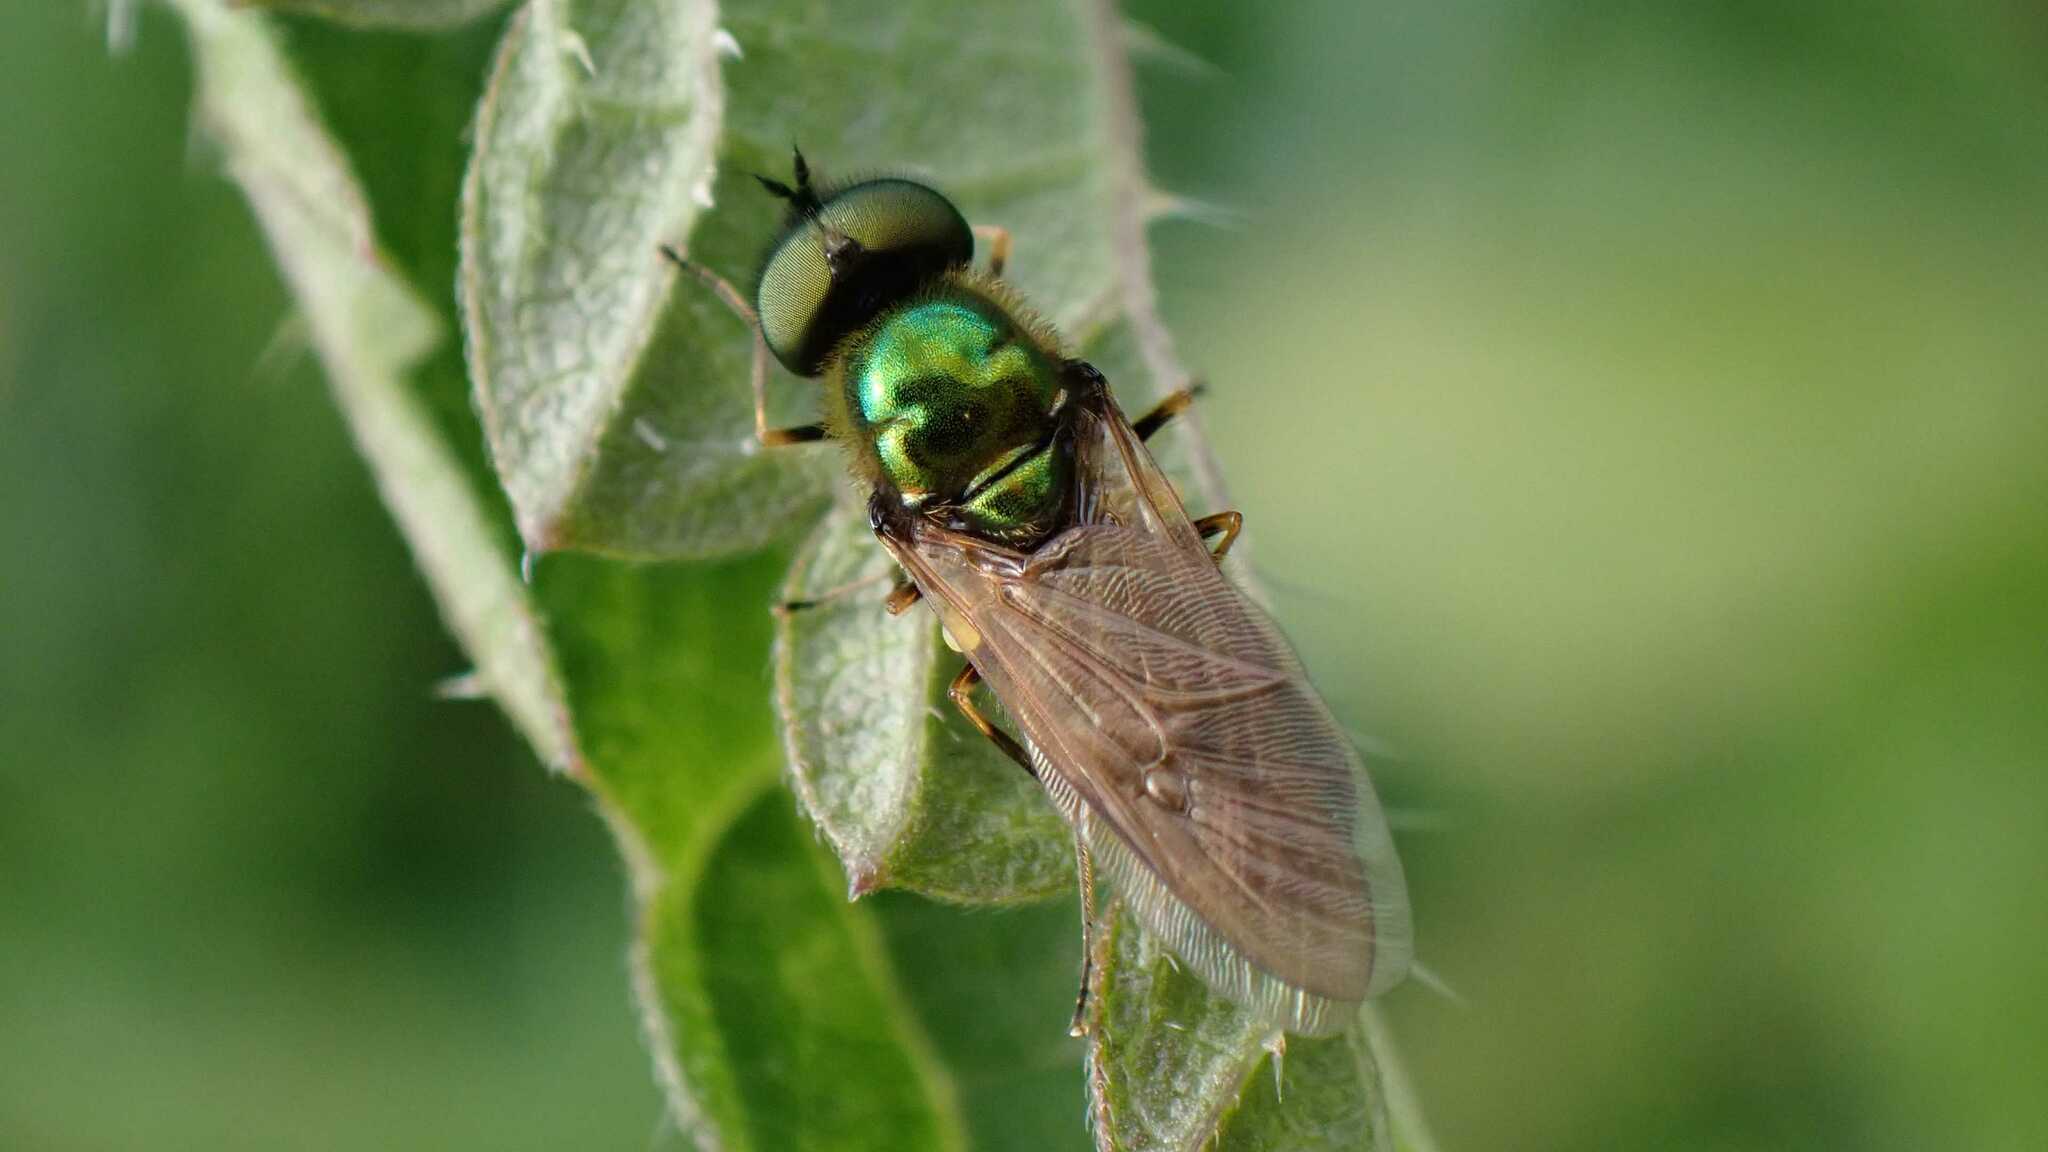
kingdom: Animalia
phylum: Arthropoda
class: Insecta
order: Diptera
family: Stratiomyidae
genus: Chloromyia
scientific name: Chloromyia formosa
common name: Soldier fly
